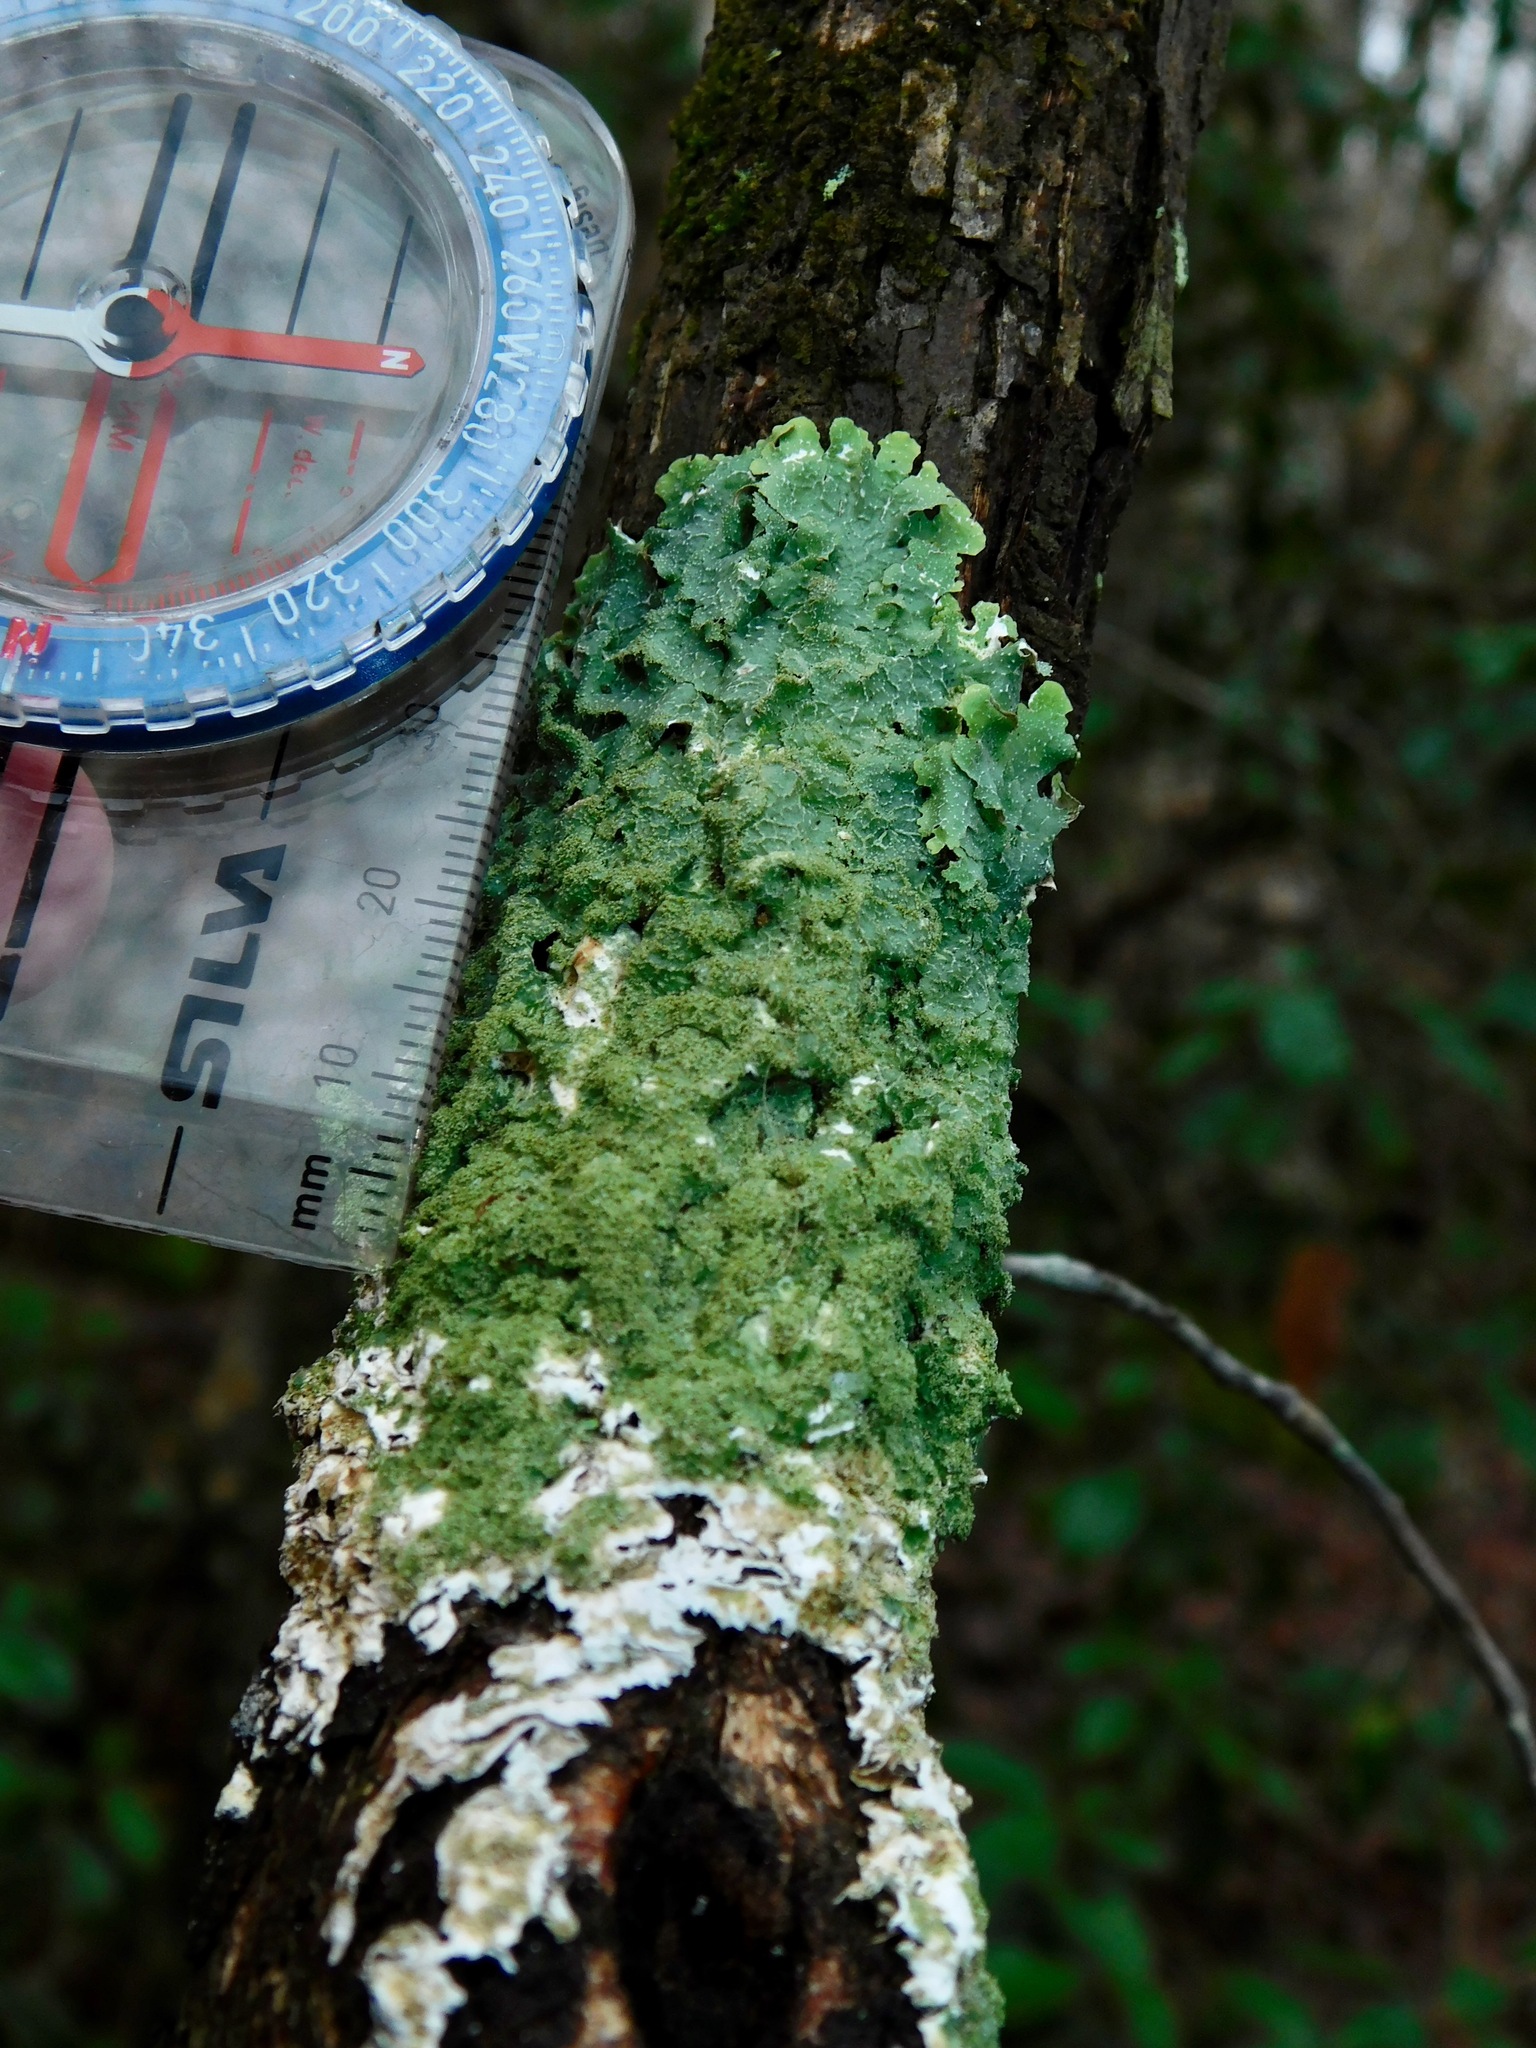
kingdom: Fungi
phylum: Ascomycota
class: Lecanoromycetes
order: Lecanorales
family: Parmeliaceae
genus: Punctelia
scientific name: Punctelia rudecta
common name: Rough speckled shield lichen
